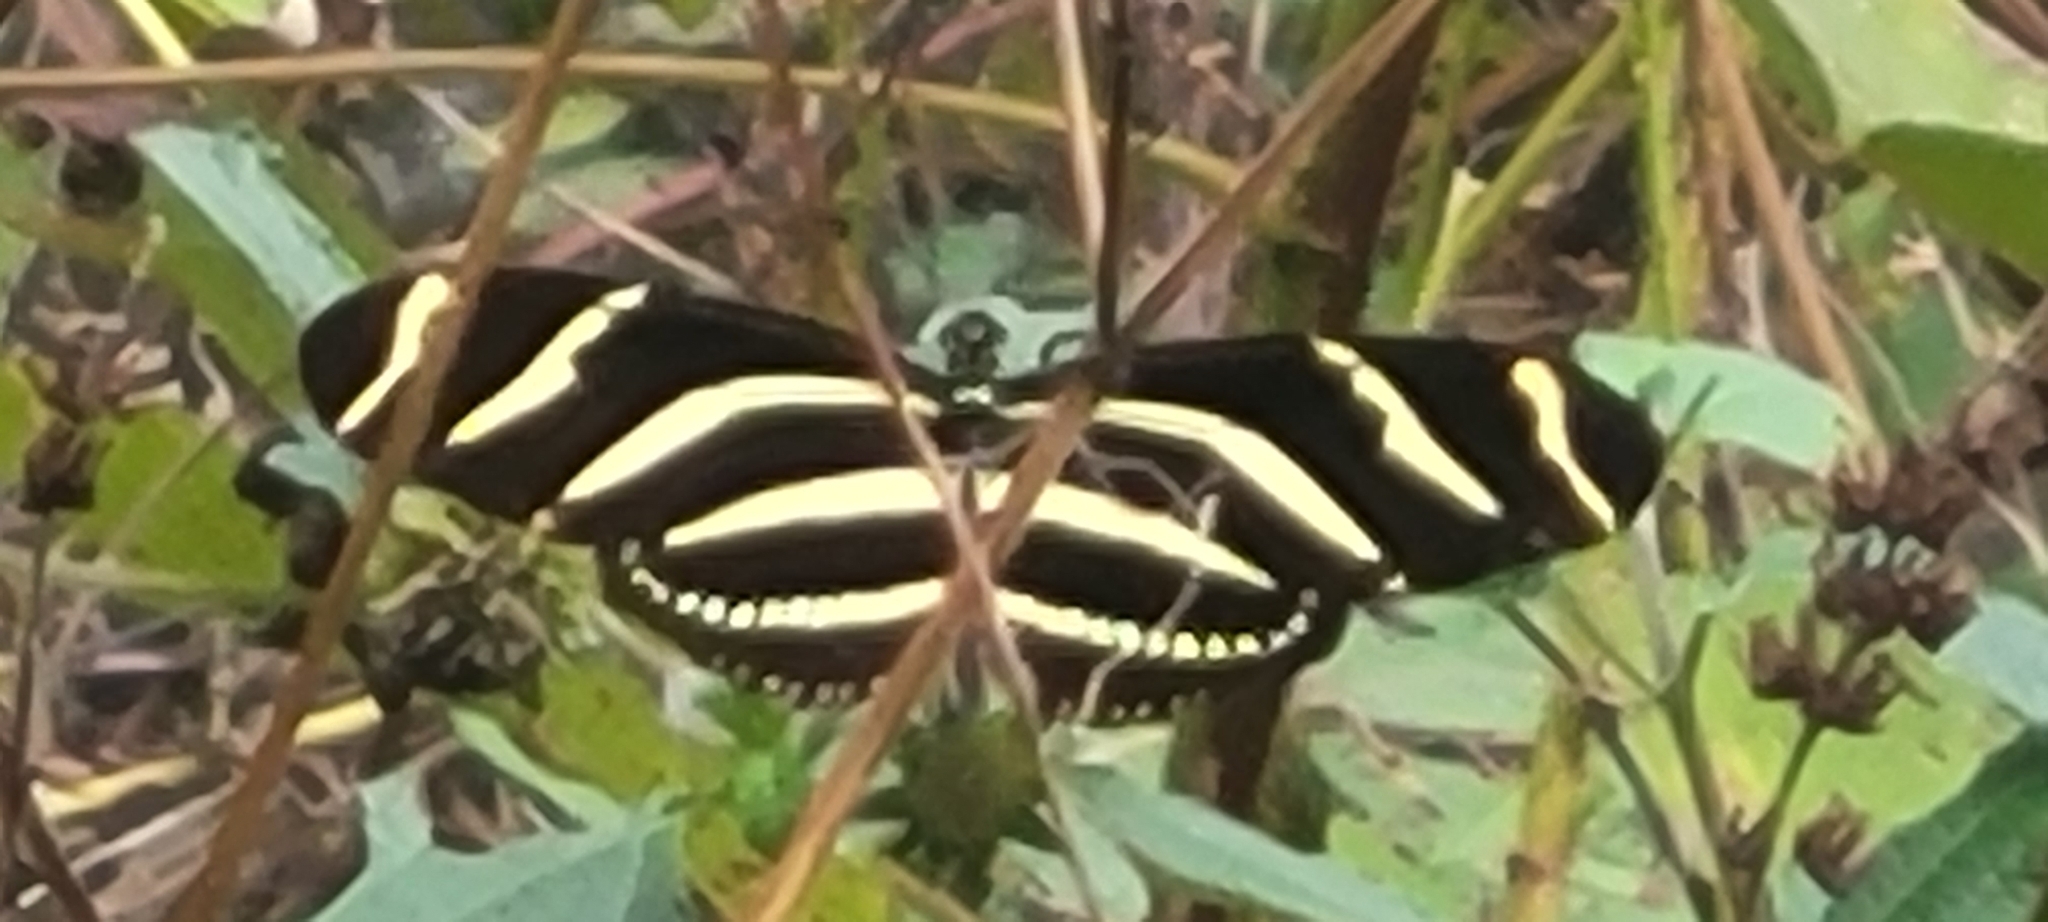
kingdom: Animalia
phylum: Arthropoda
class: Insecta
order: Lepidoptera
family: Nymphalidae
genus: Heliconius
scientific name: Heliconius charithonia
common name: Zebra long wing
